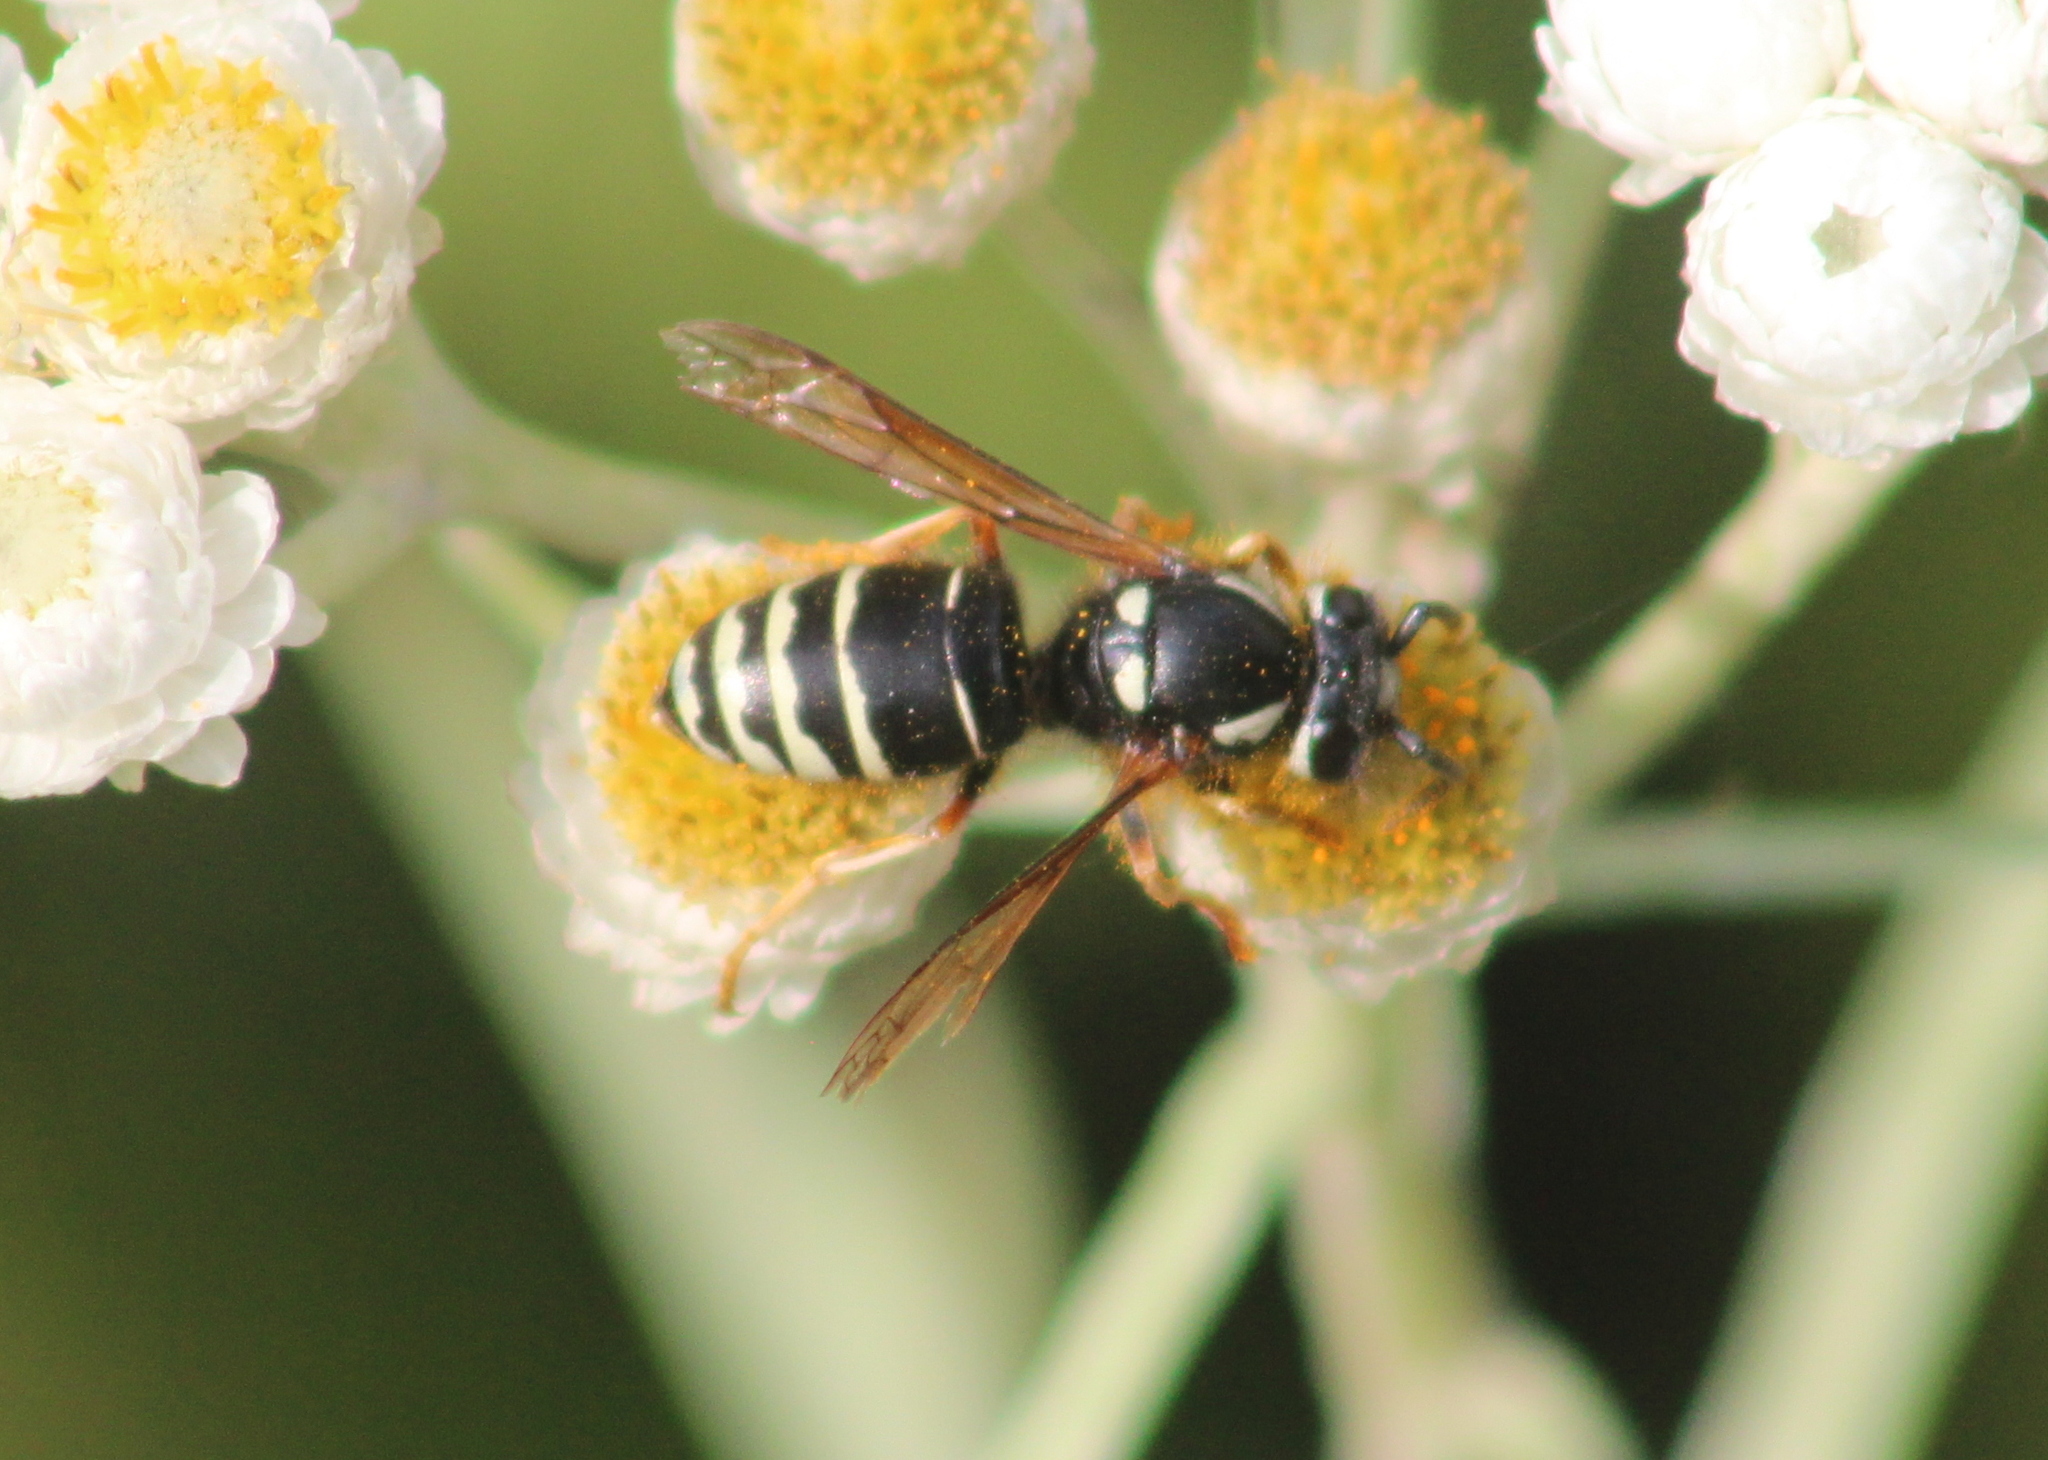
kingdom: Animalia
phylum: Arthropoda
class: Insecta
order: Hymenoptera
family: Vespidae
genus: Vespula
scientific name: Vespula consobrina
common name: Blackjacket
